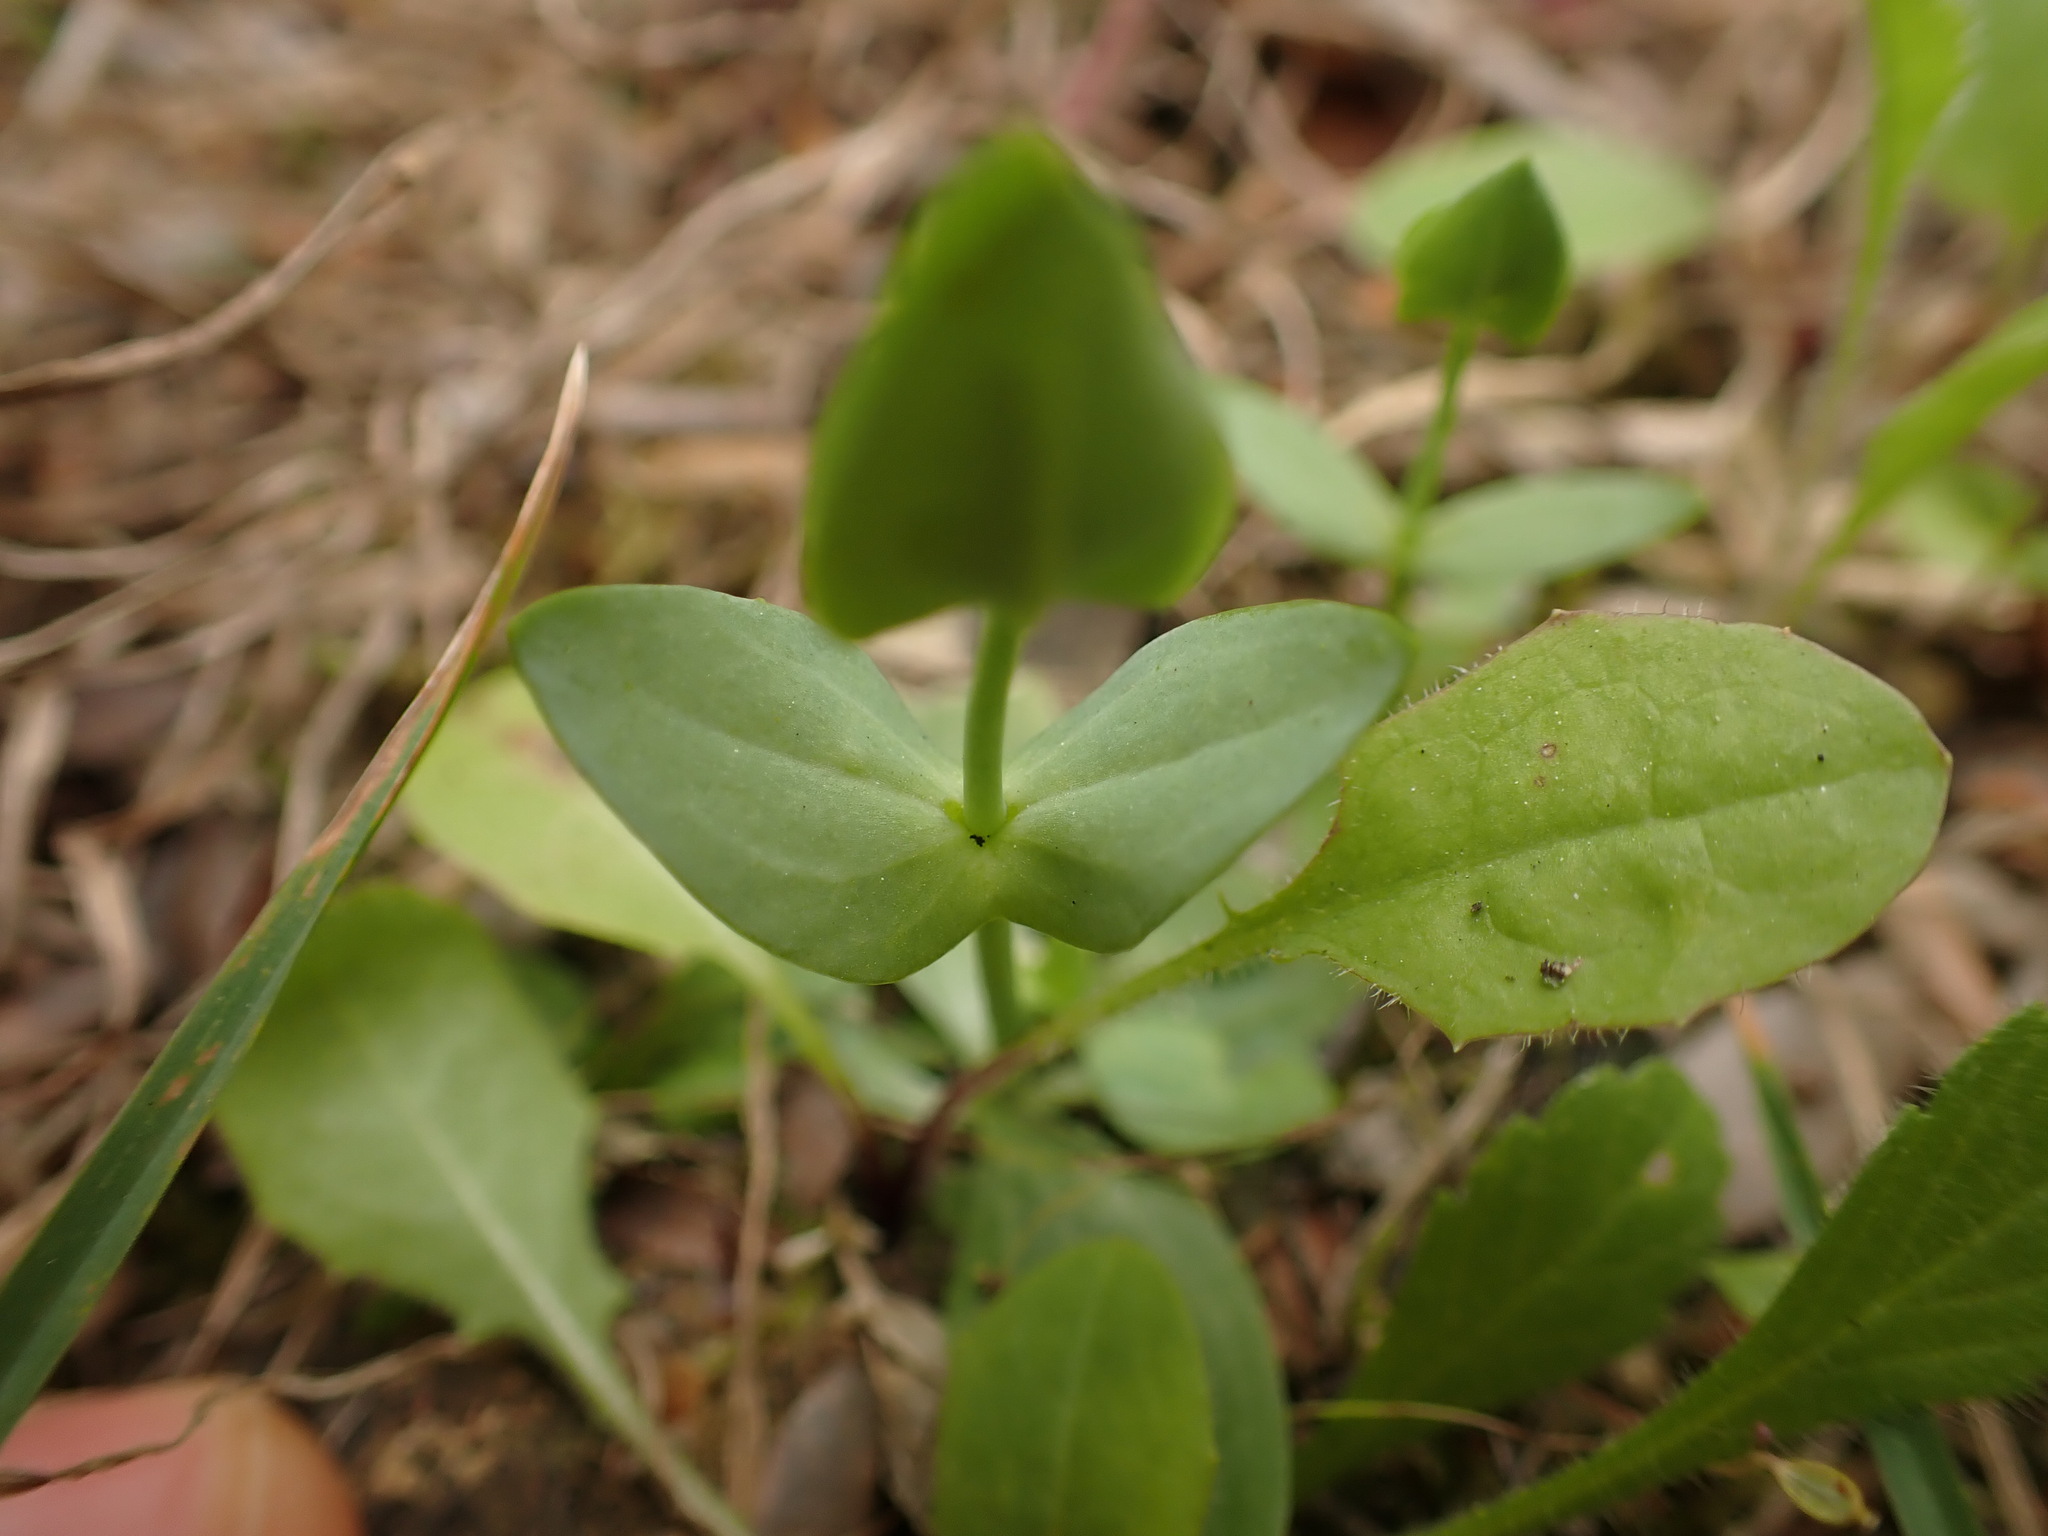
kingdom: Plantae
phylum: Tracheophyta
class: Magnoliopsida
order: Gentianales
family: Gentianaceae
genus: Blackstonia
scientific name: Blackstonia perfoliata
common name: Yellow-wort
